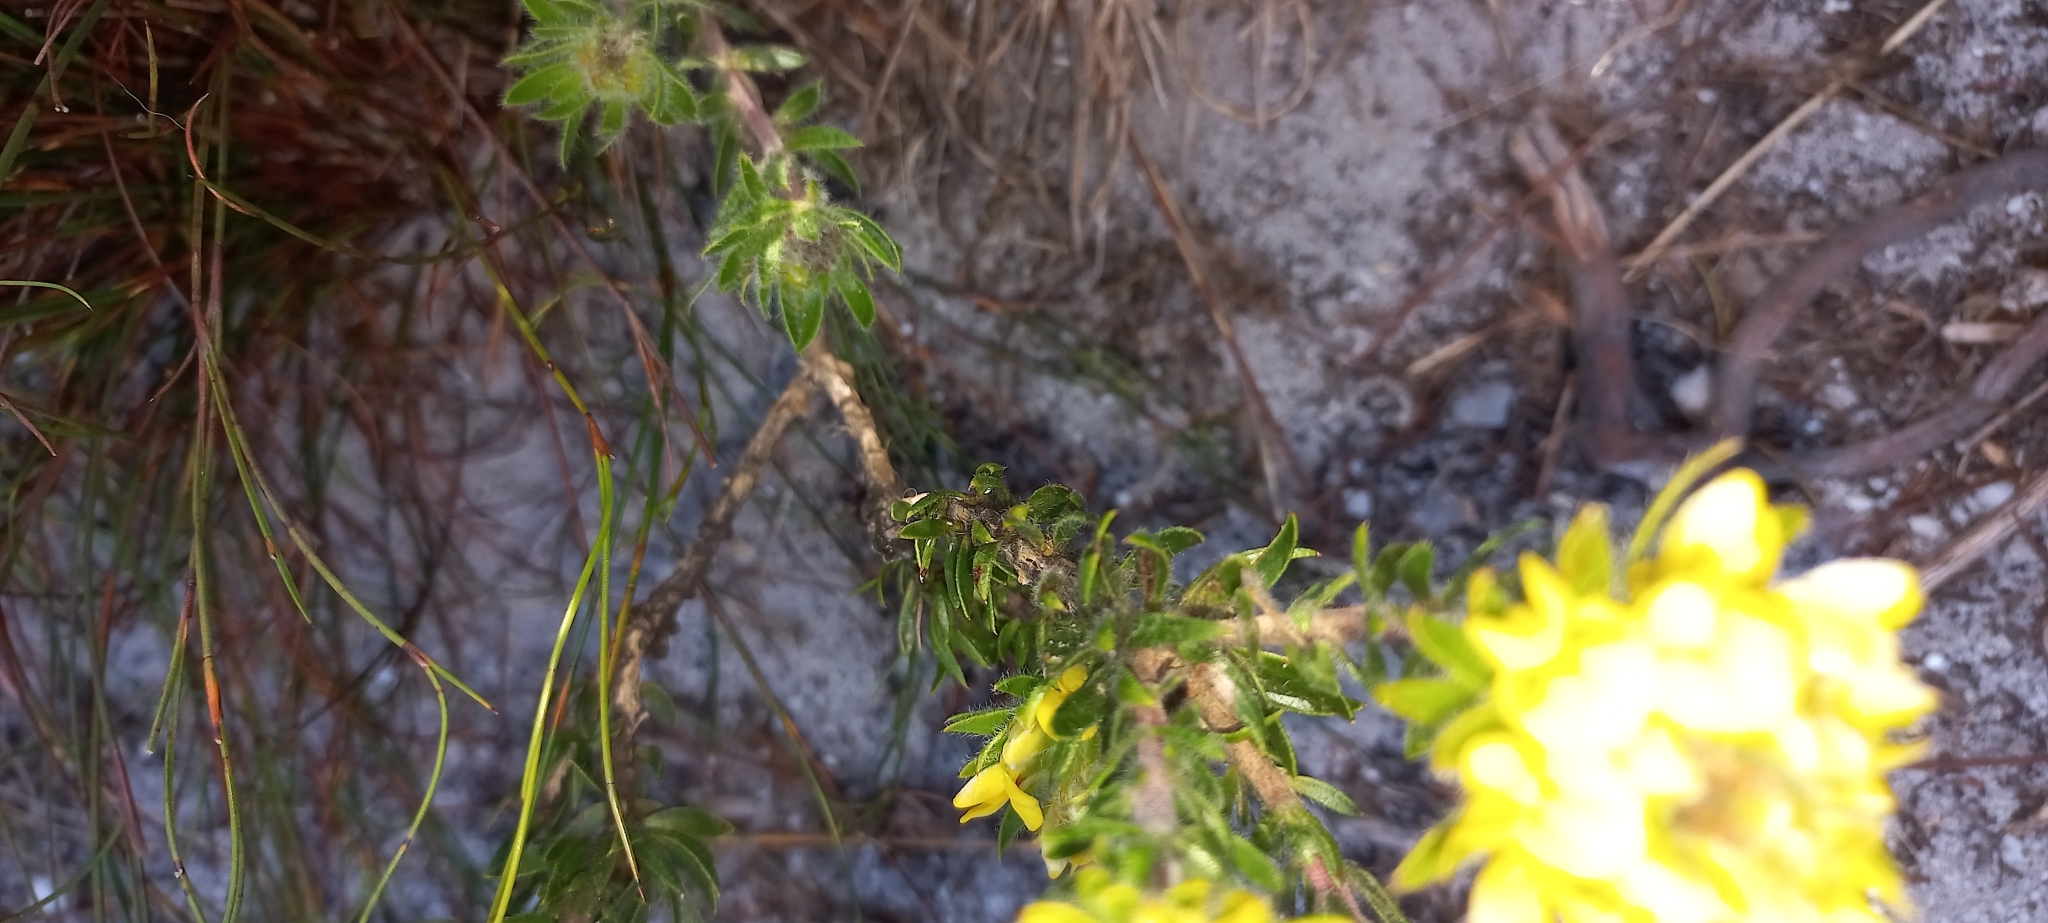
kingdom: Plantae
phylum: Tracheophyta
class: Magnoliopsida
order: Fabales
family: Fabaceae
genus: Aspalathus
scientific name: Aspalathus aspalathoides
